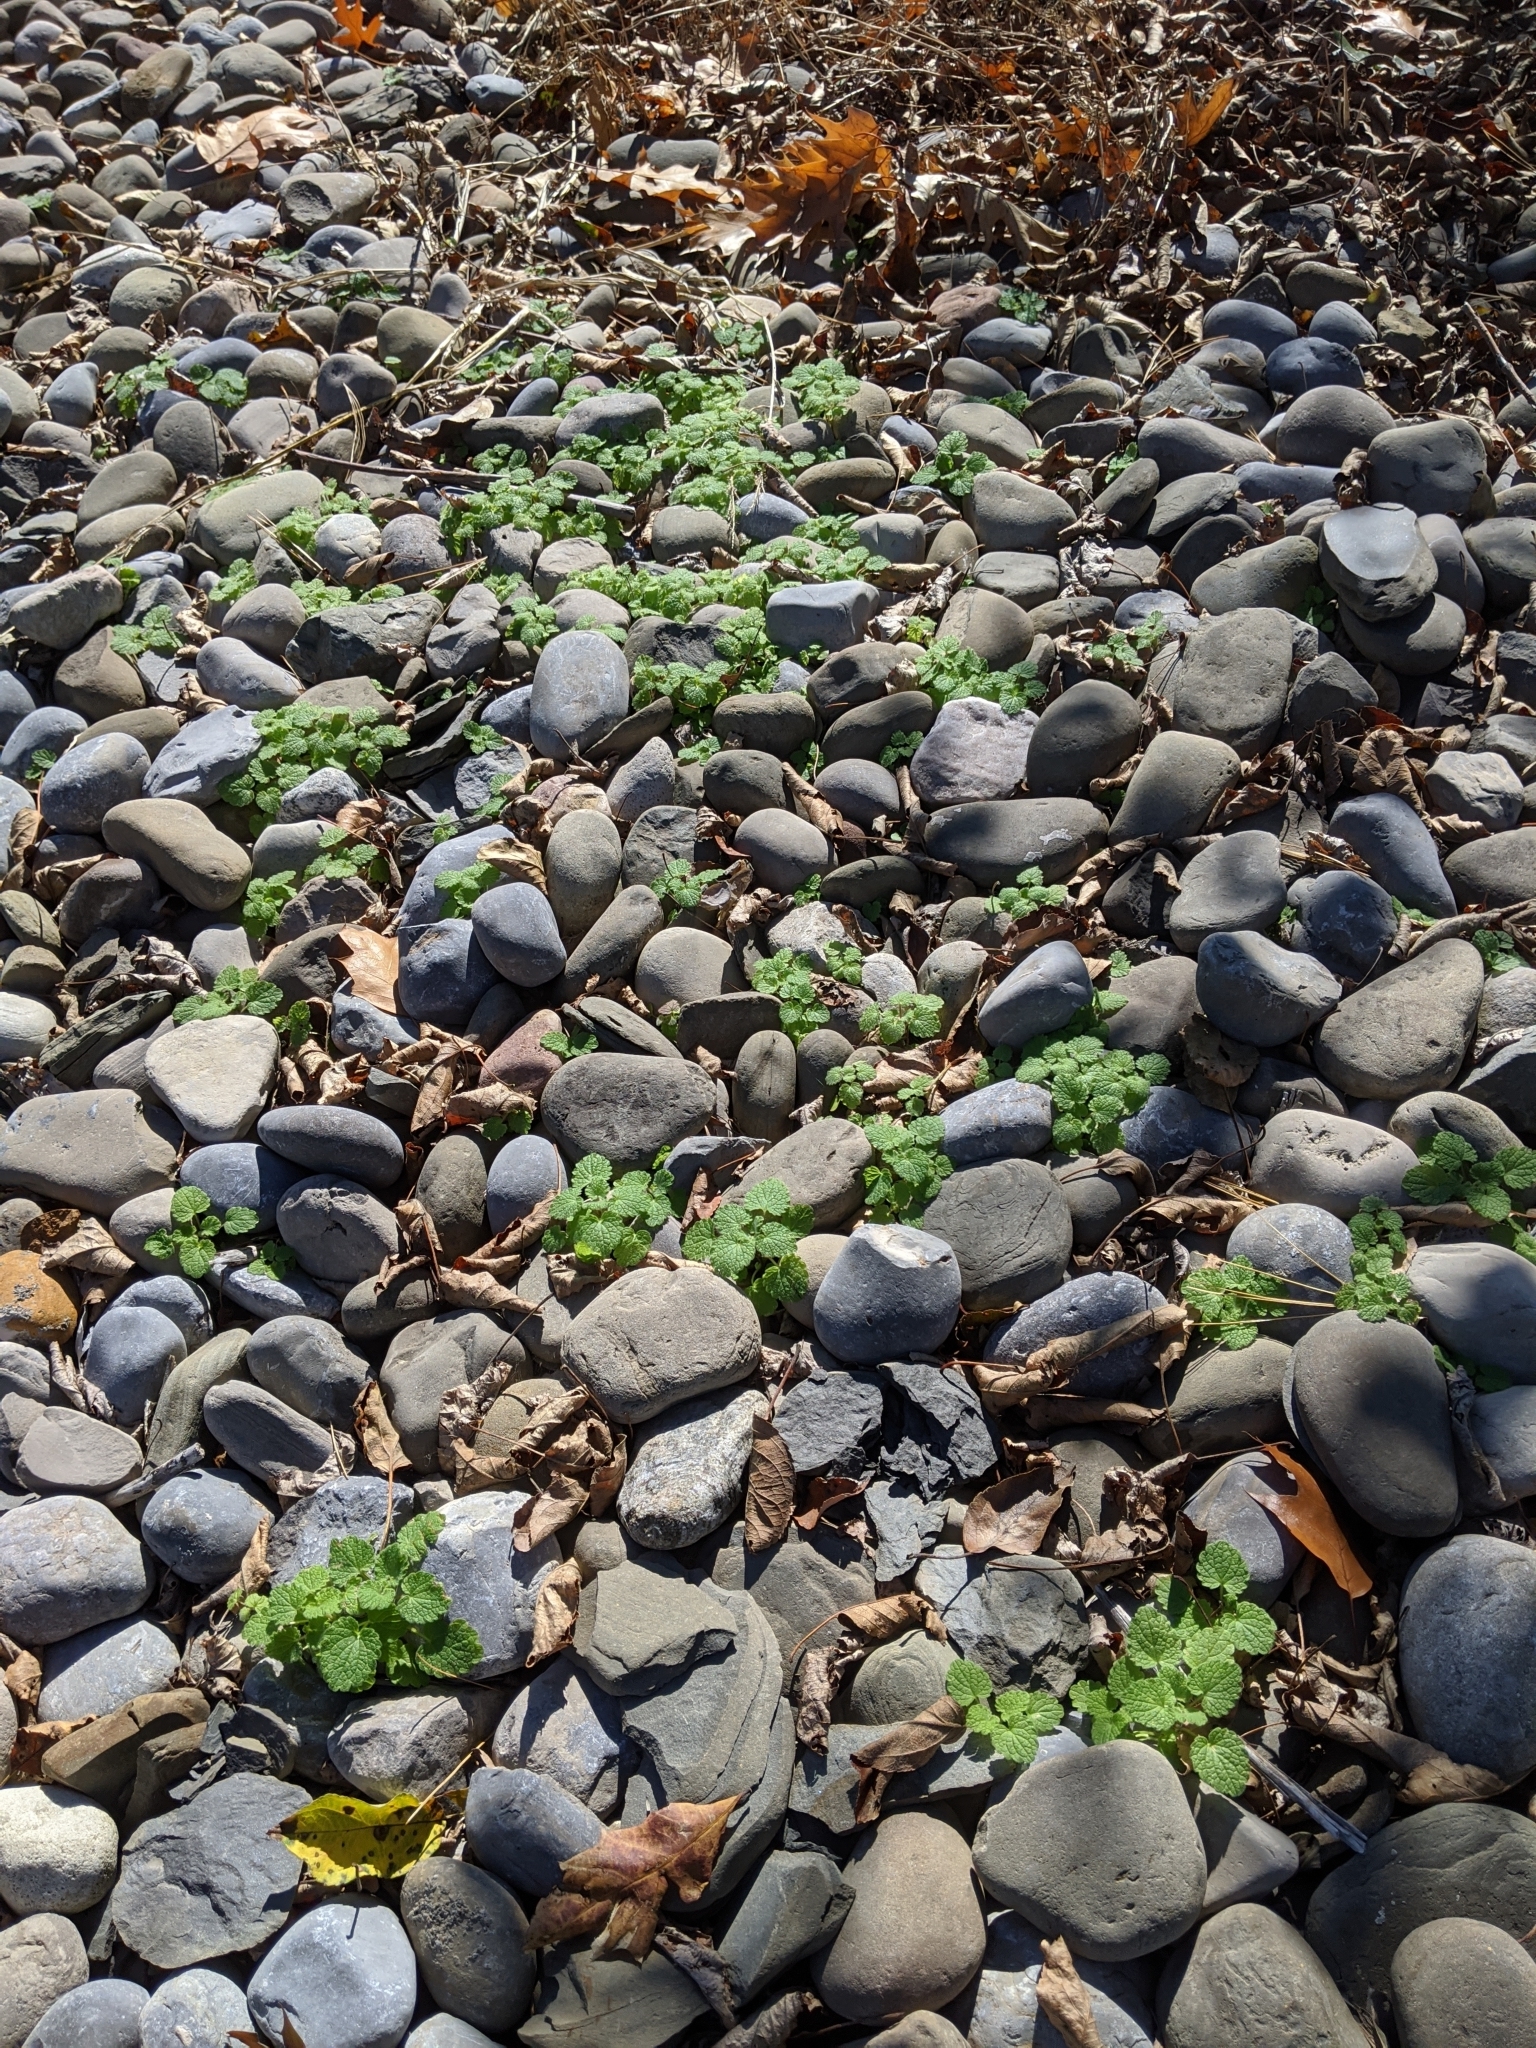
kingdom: Plantae
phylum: Tracheophyta
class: Magnoliopsida
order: Lamiales
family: Lamiaceae
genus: Lamium
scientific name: Lamium purpureum
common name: Red dead-nettle
